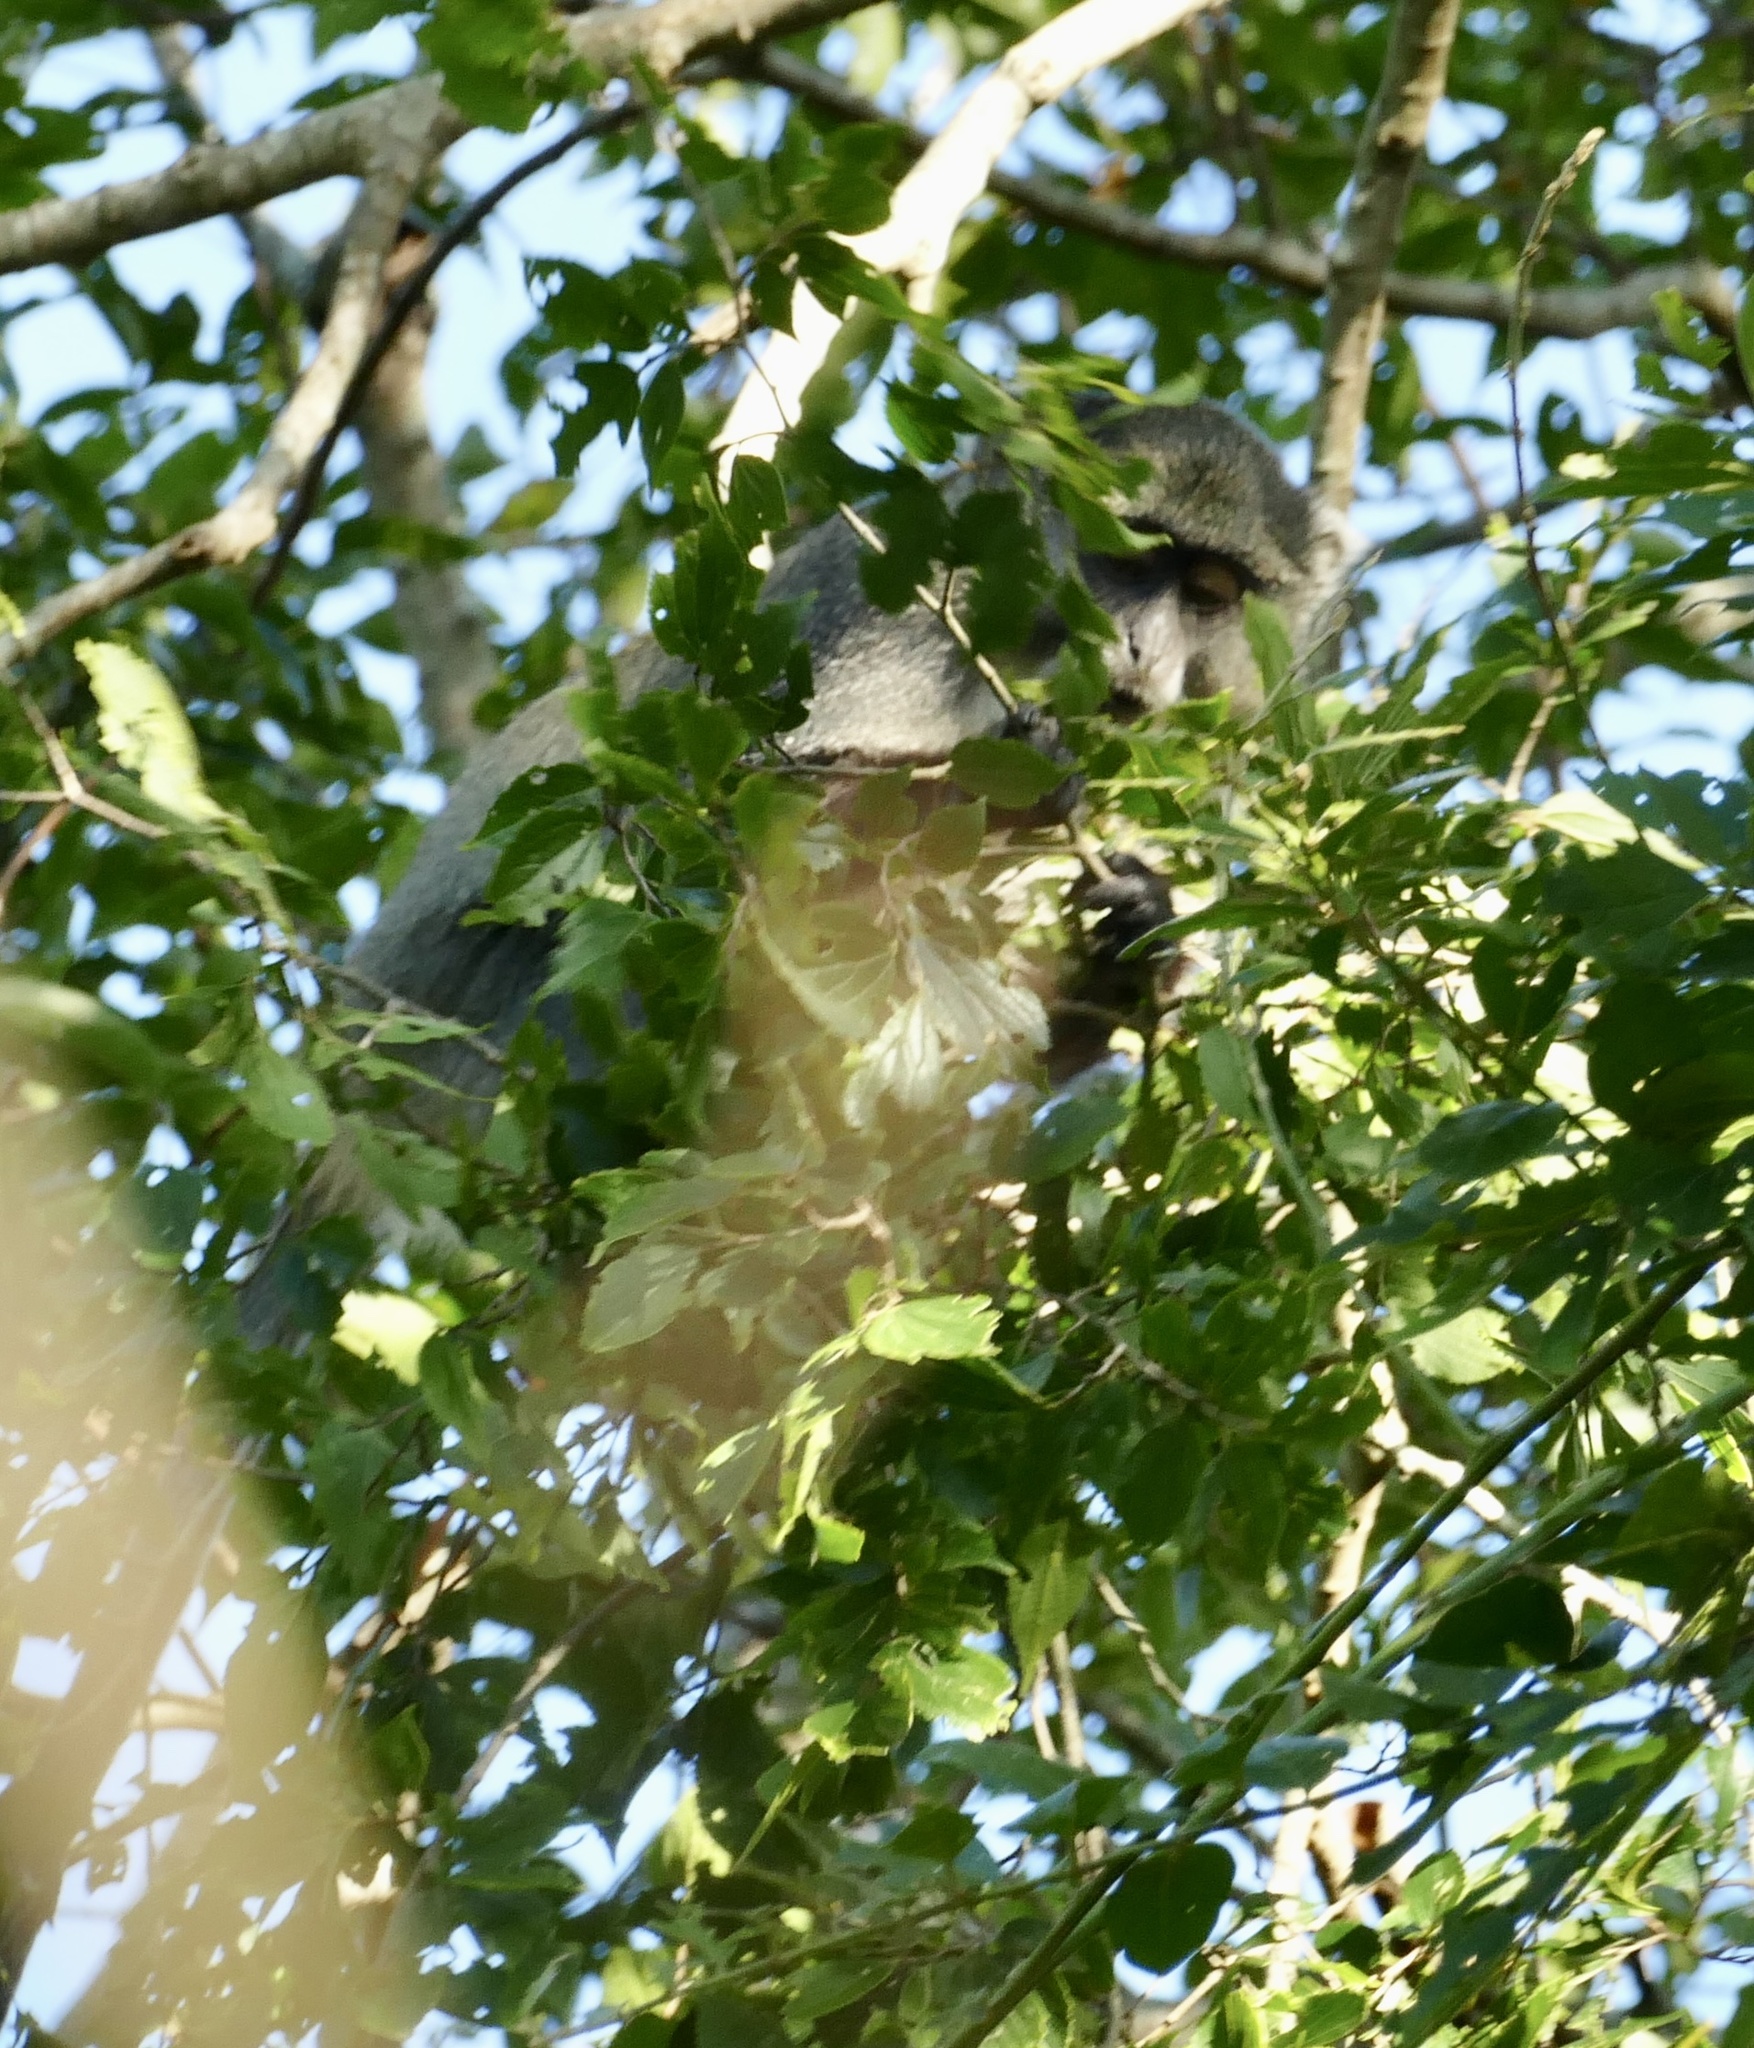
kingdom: Animalia
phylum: Chordata
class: Mammalia
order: Primates
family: Cercopithecidae
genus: Cercopithecus
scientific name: Cercopithecus mitis
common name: Blue monkey
